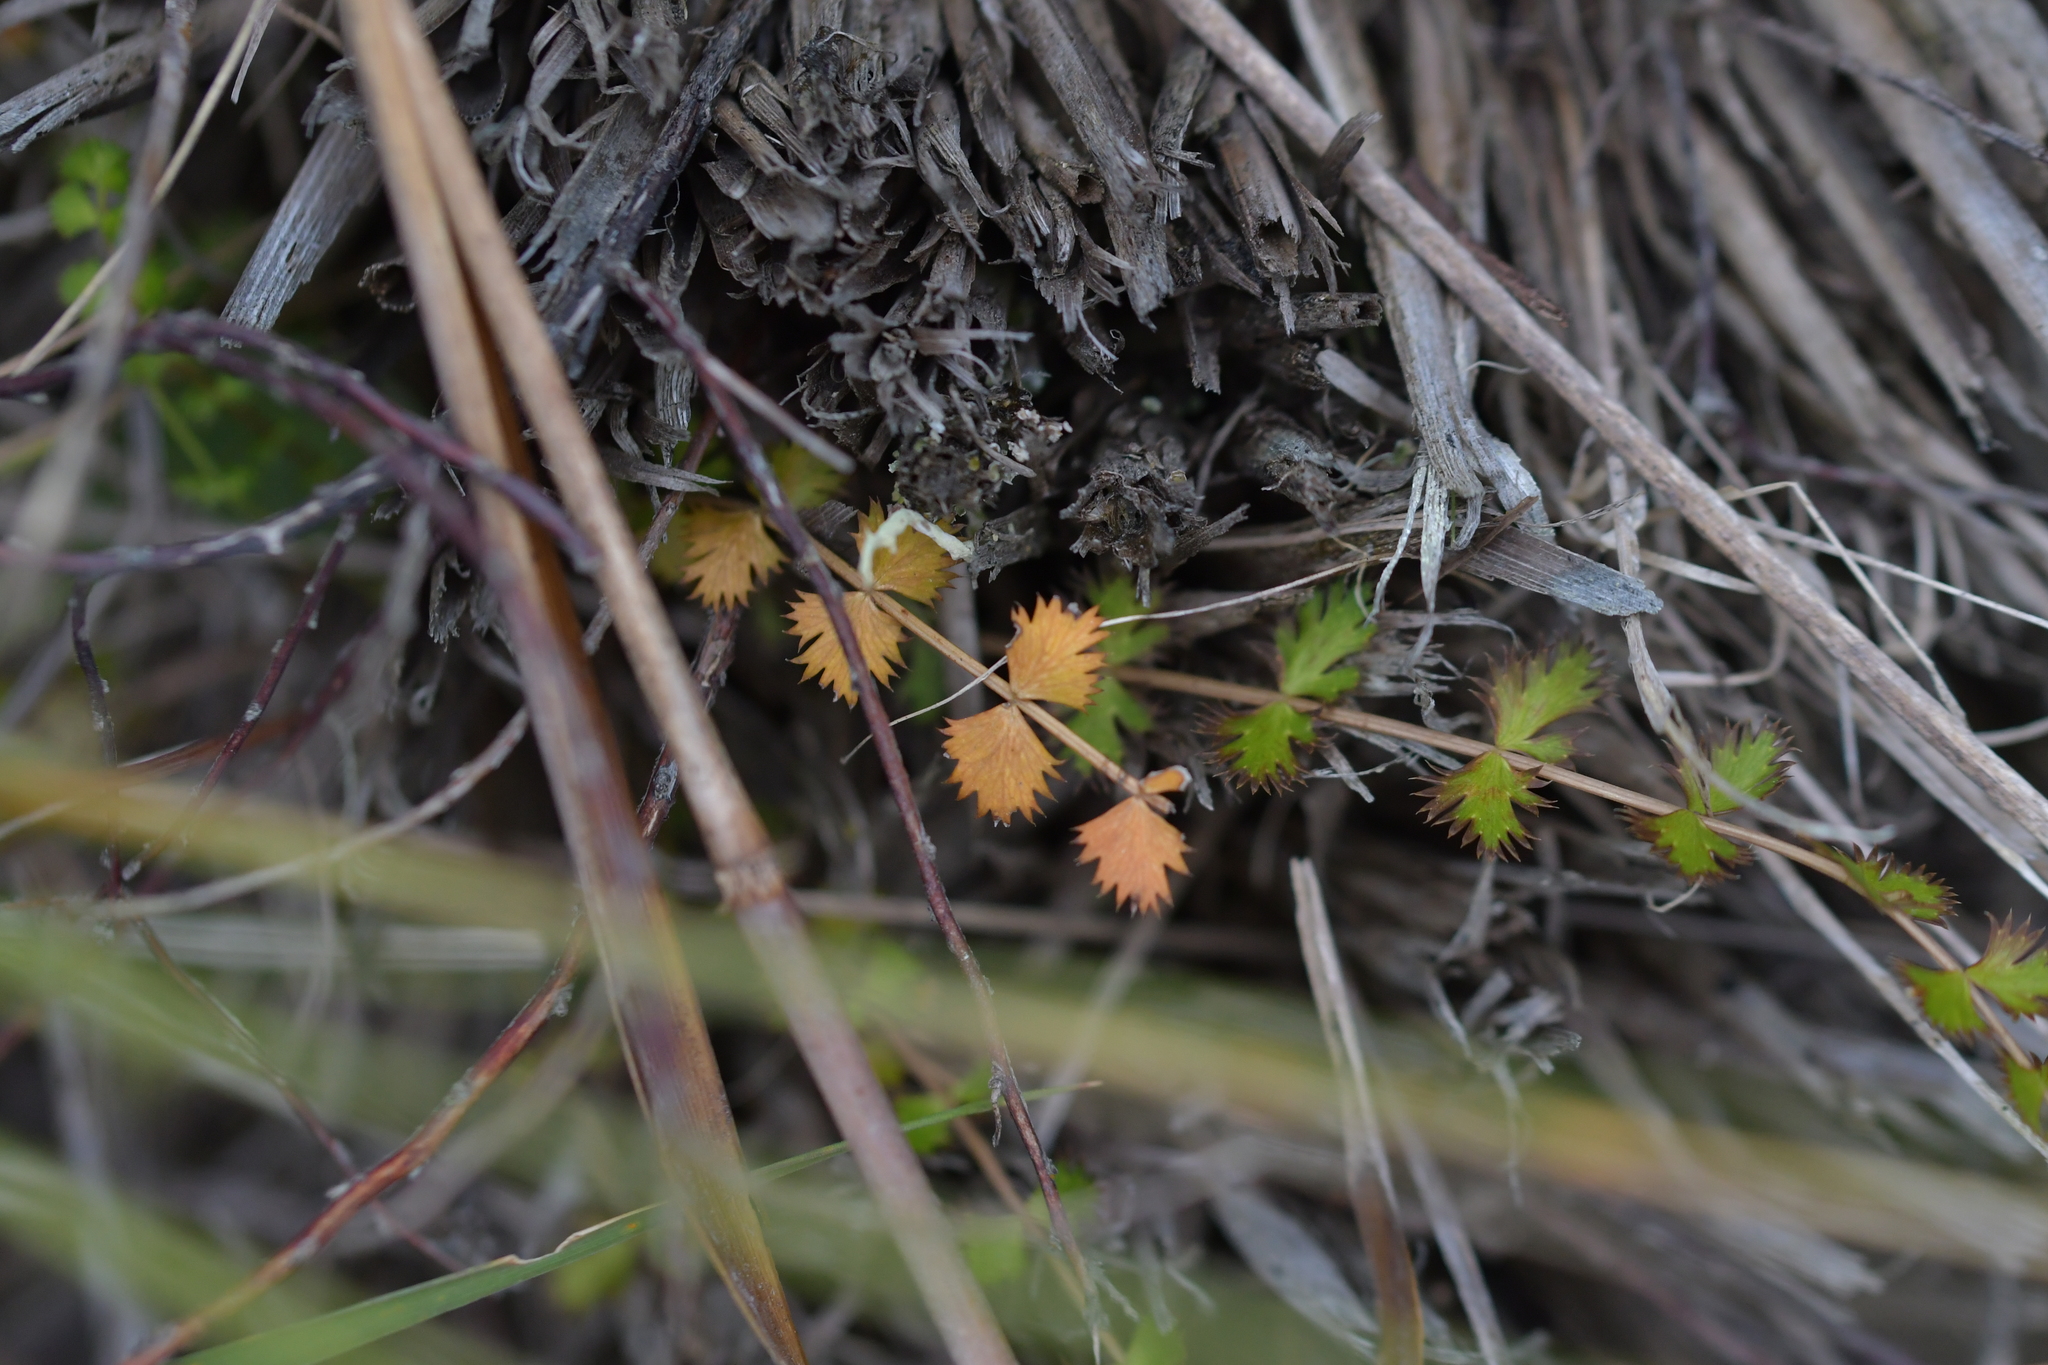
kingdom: Plantae
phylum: Tracheophyta
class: Magnoliopsida
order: Apiales
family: Apiaceae
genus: Anisotome
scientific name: Anisotome aromatica
